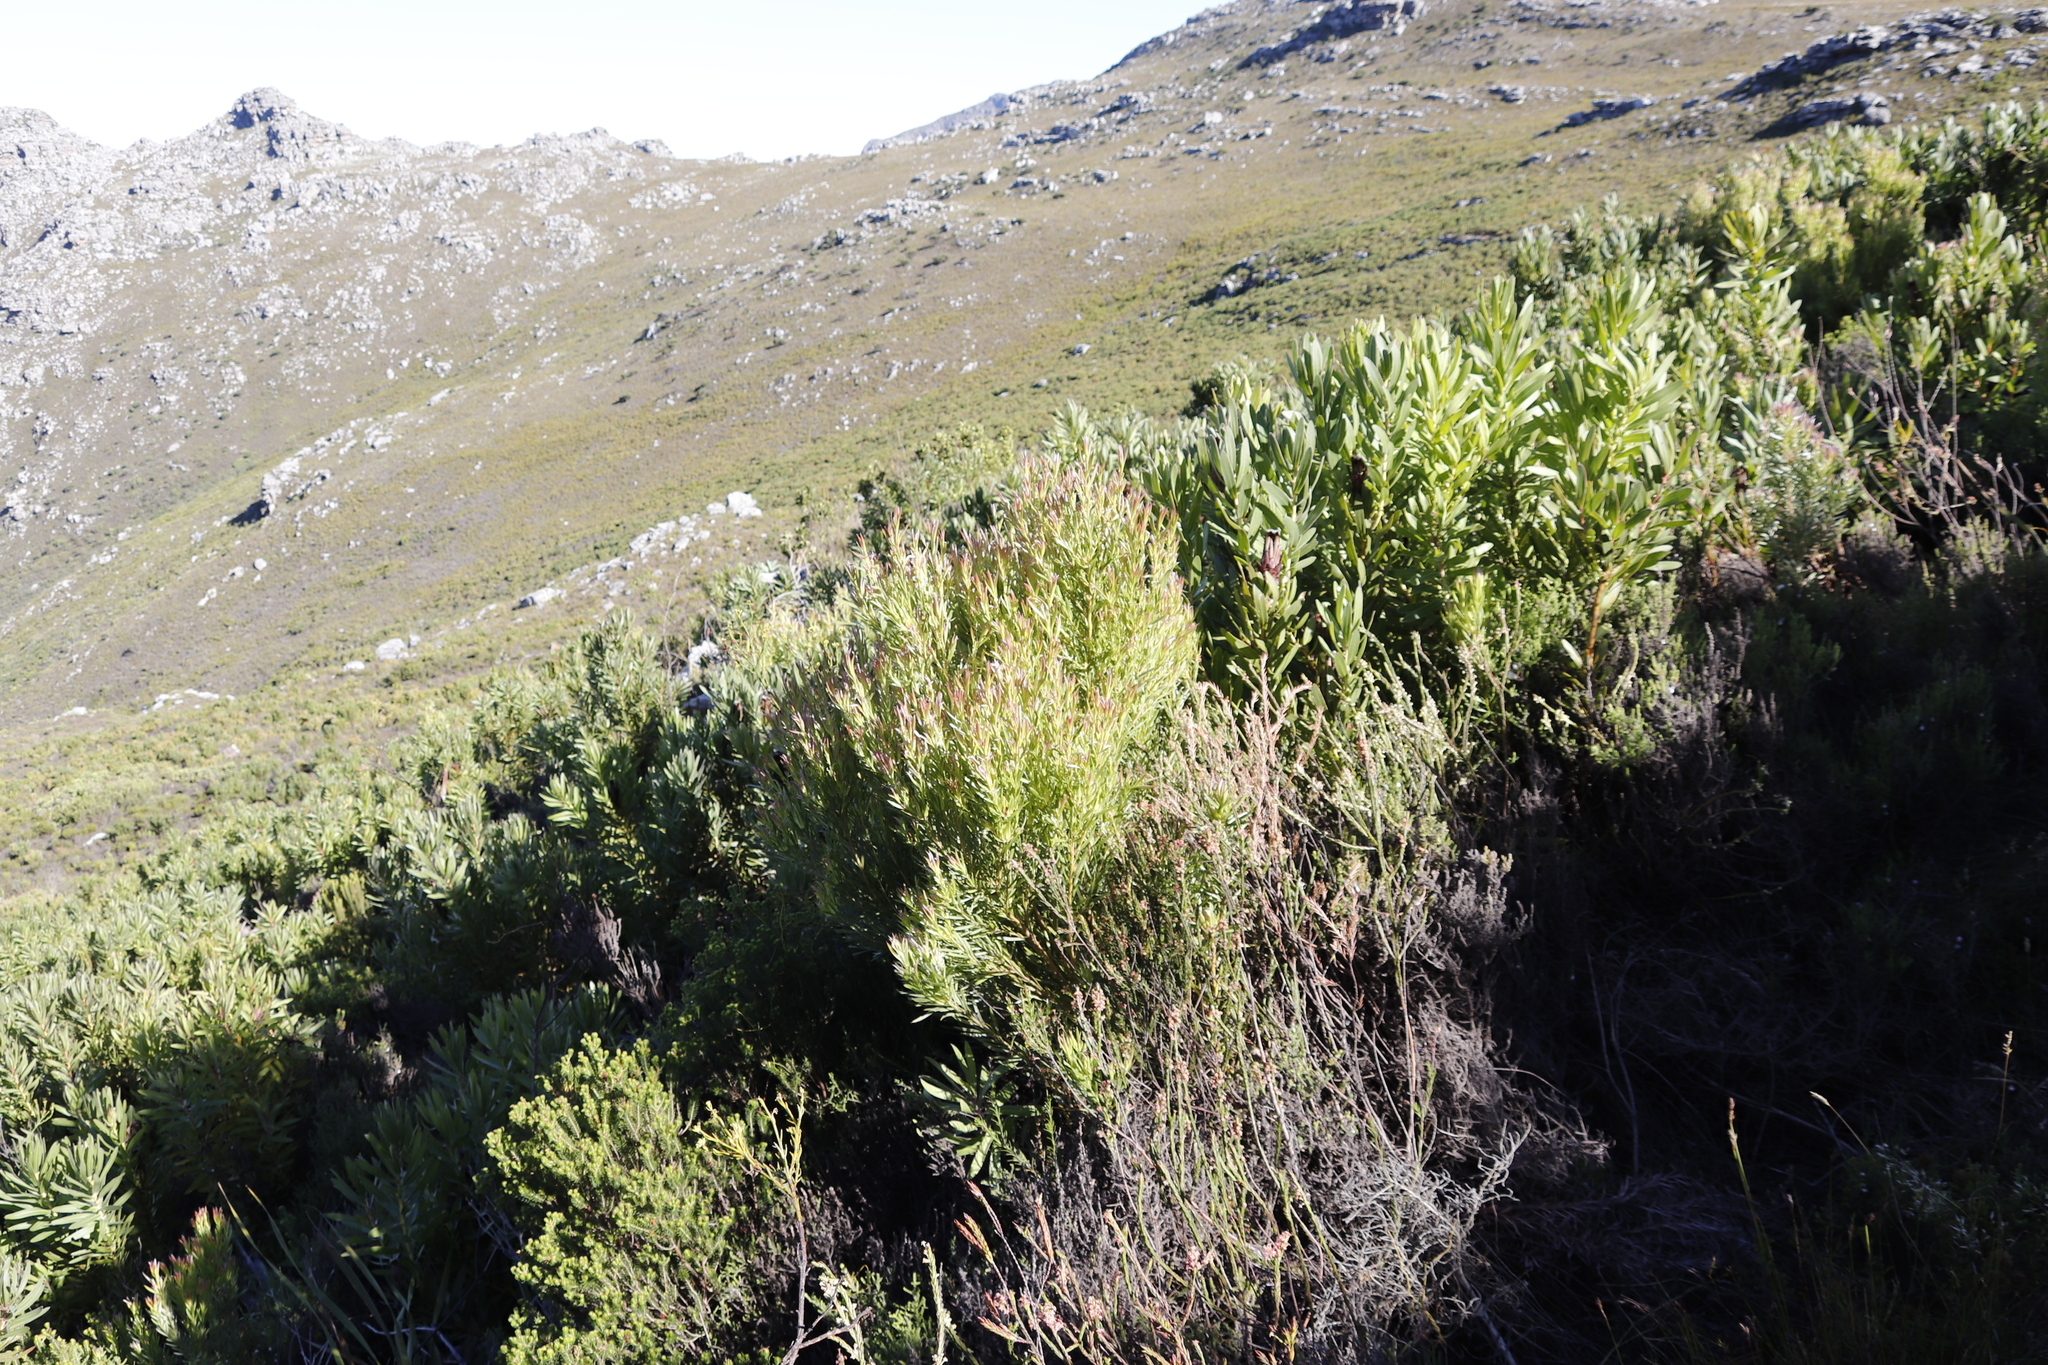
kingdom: Plantae
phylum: Tracheophyta
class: Magnoliopsida
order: Proteales
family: Proteaceae
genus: Leucadendron
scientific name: Leucadendron xanthoconus
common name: Sickle-leaf conebush
